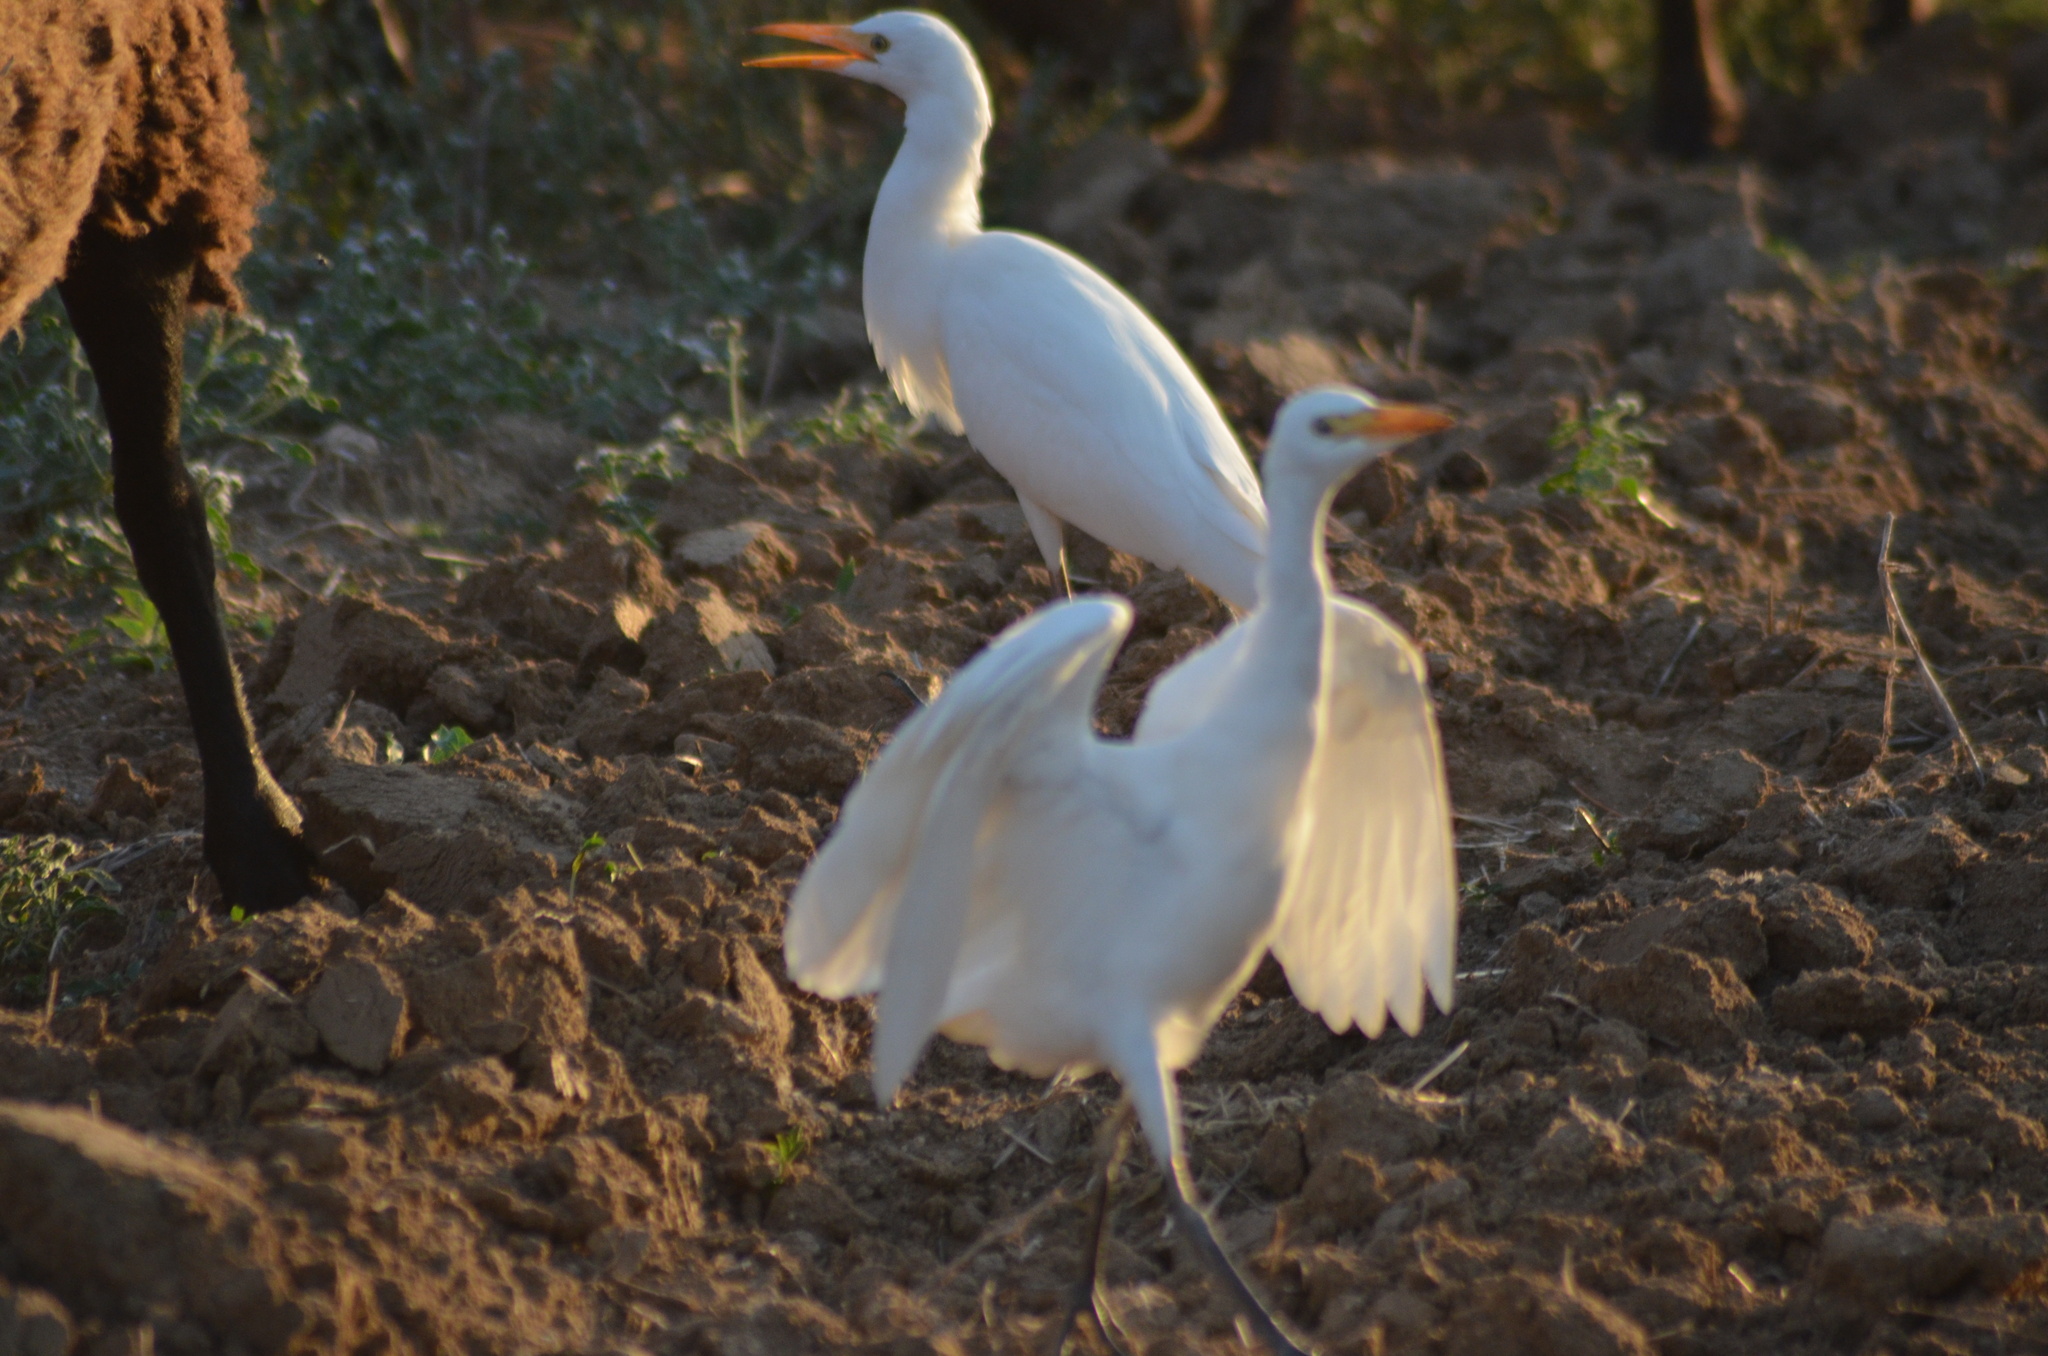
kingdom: Animalia
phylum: Chordata
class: Aves
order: Pelecaniformes
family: Ardeidae
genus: Bubulcus
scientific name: Bubulcus ibis
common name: Cattle egret
